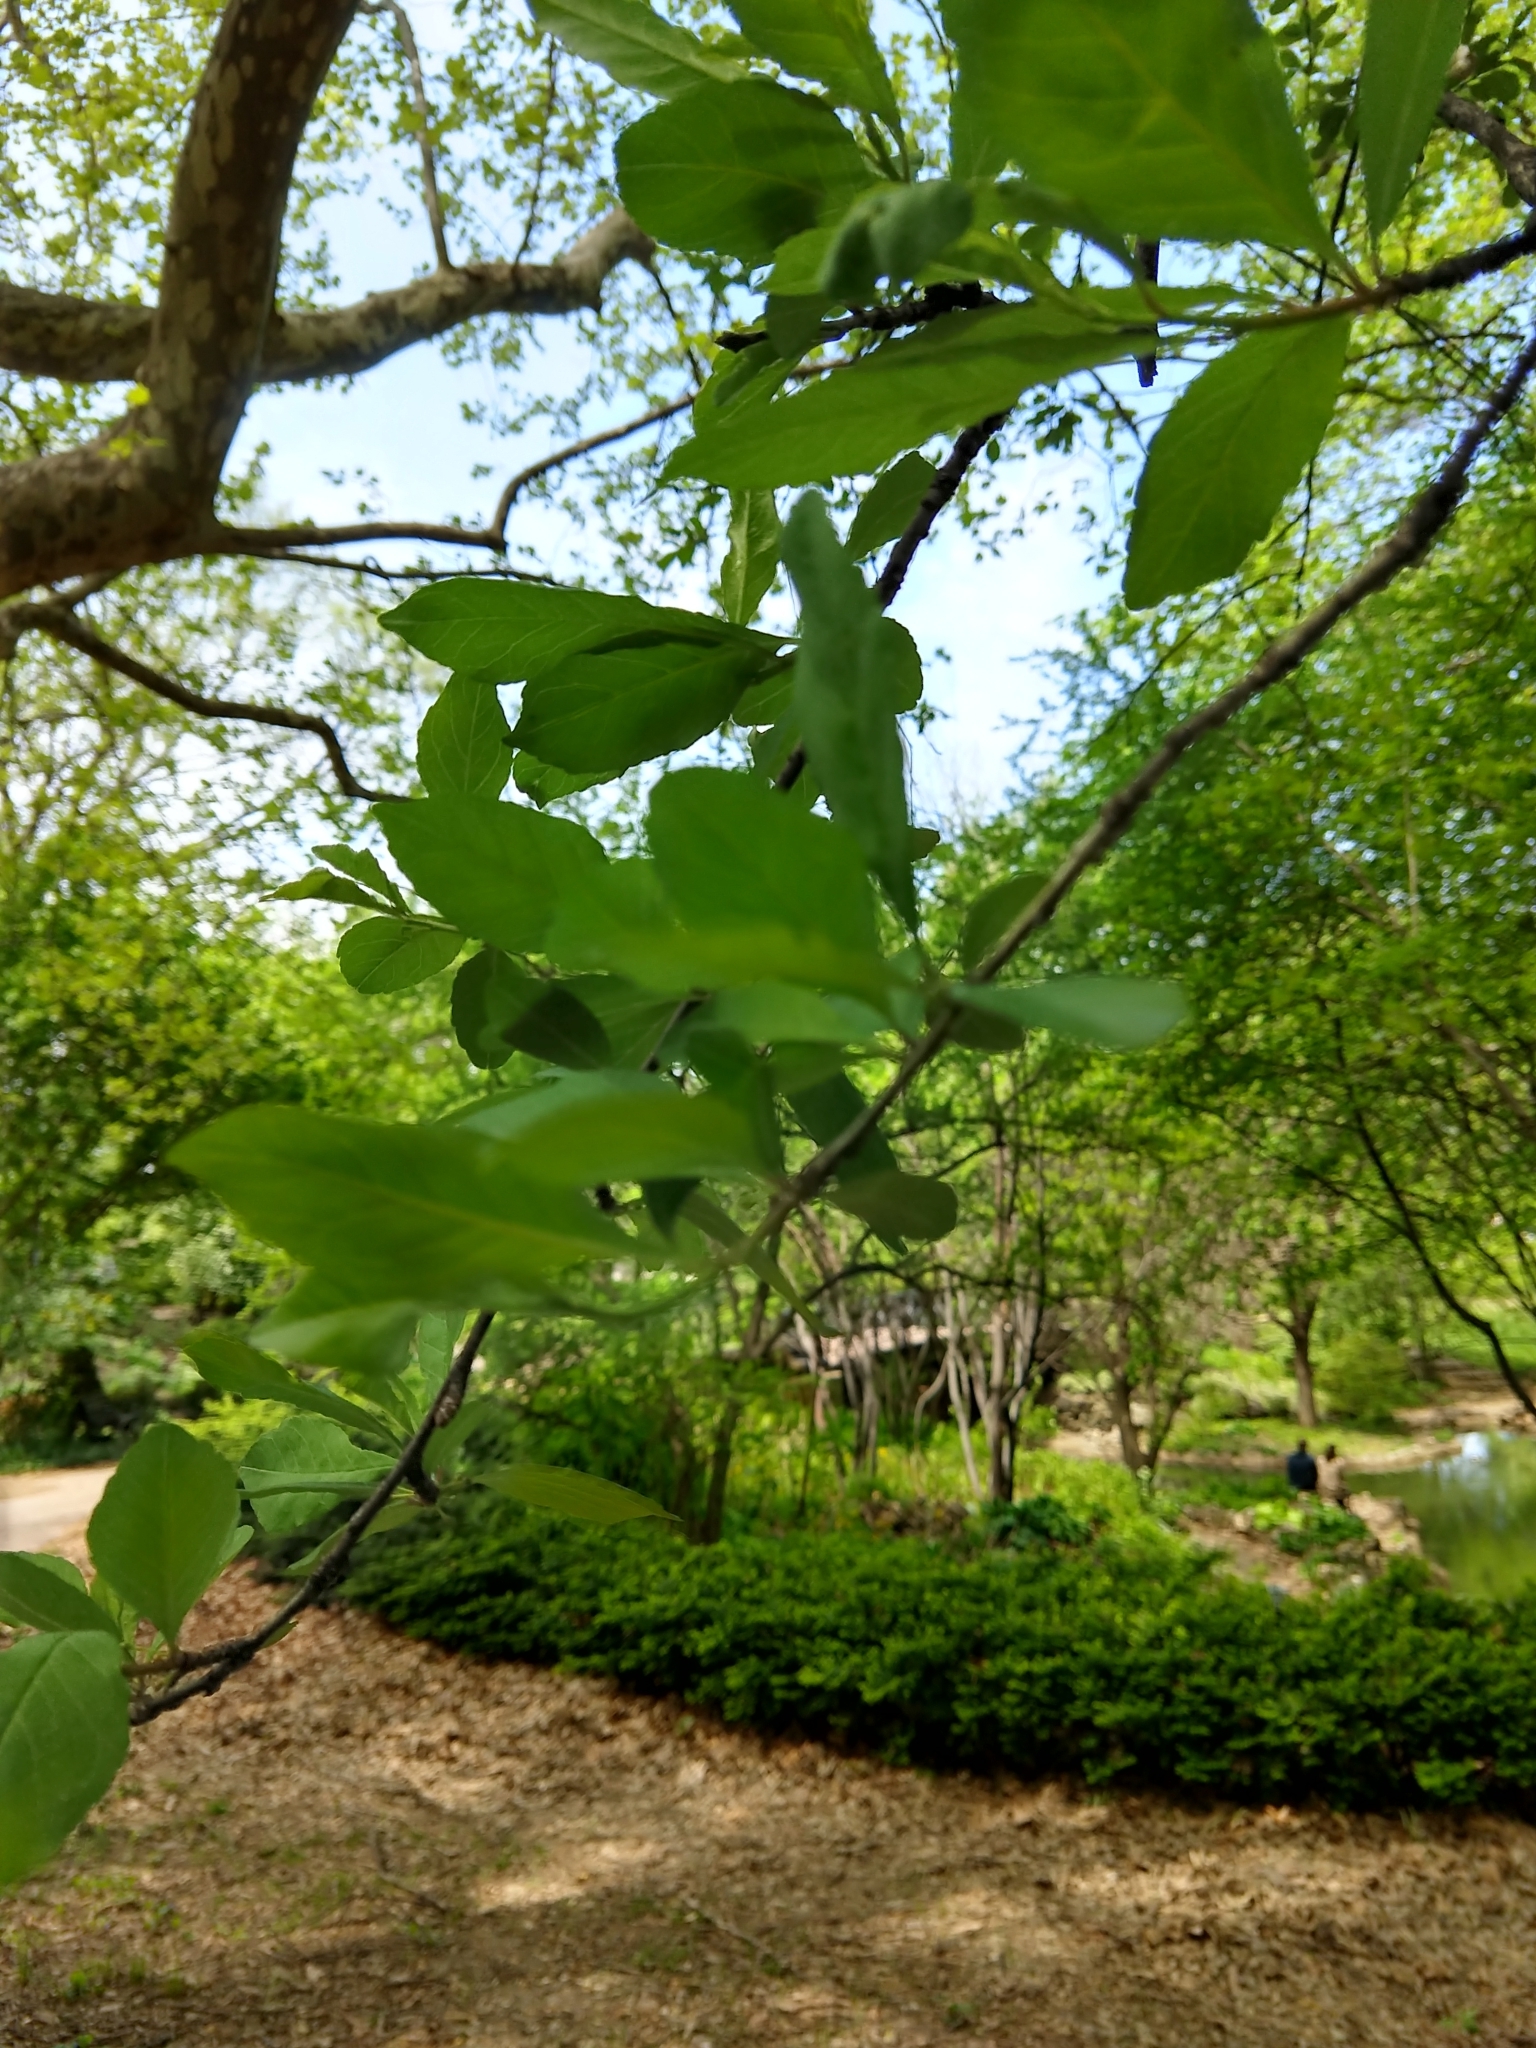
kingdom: Plantae
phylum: Tracheophyta
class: Magnoliopsida
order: Aquifoliales
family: Aquifoliaceae
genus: Ilex
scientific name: Ilex decidua
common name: Possum-haw
